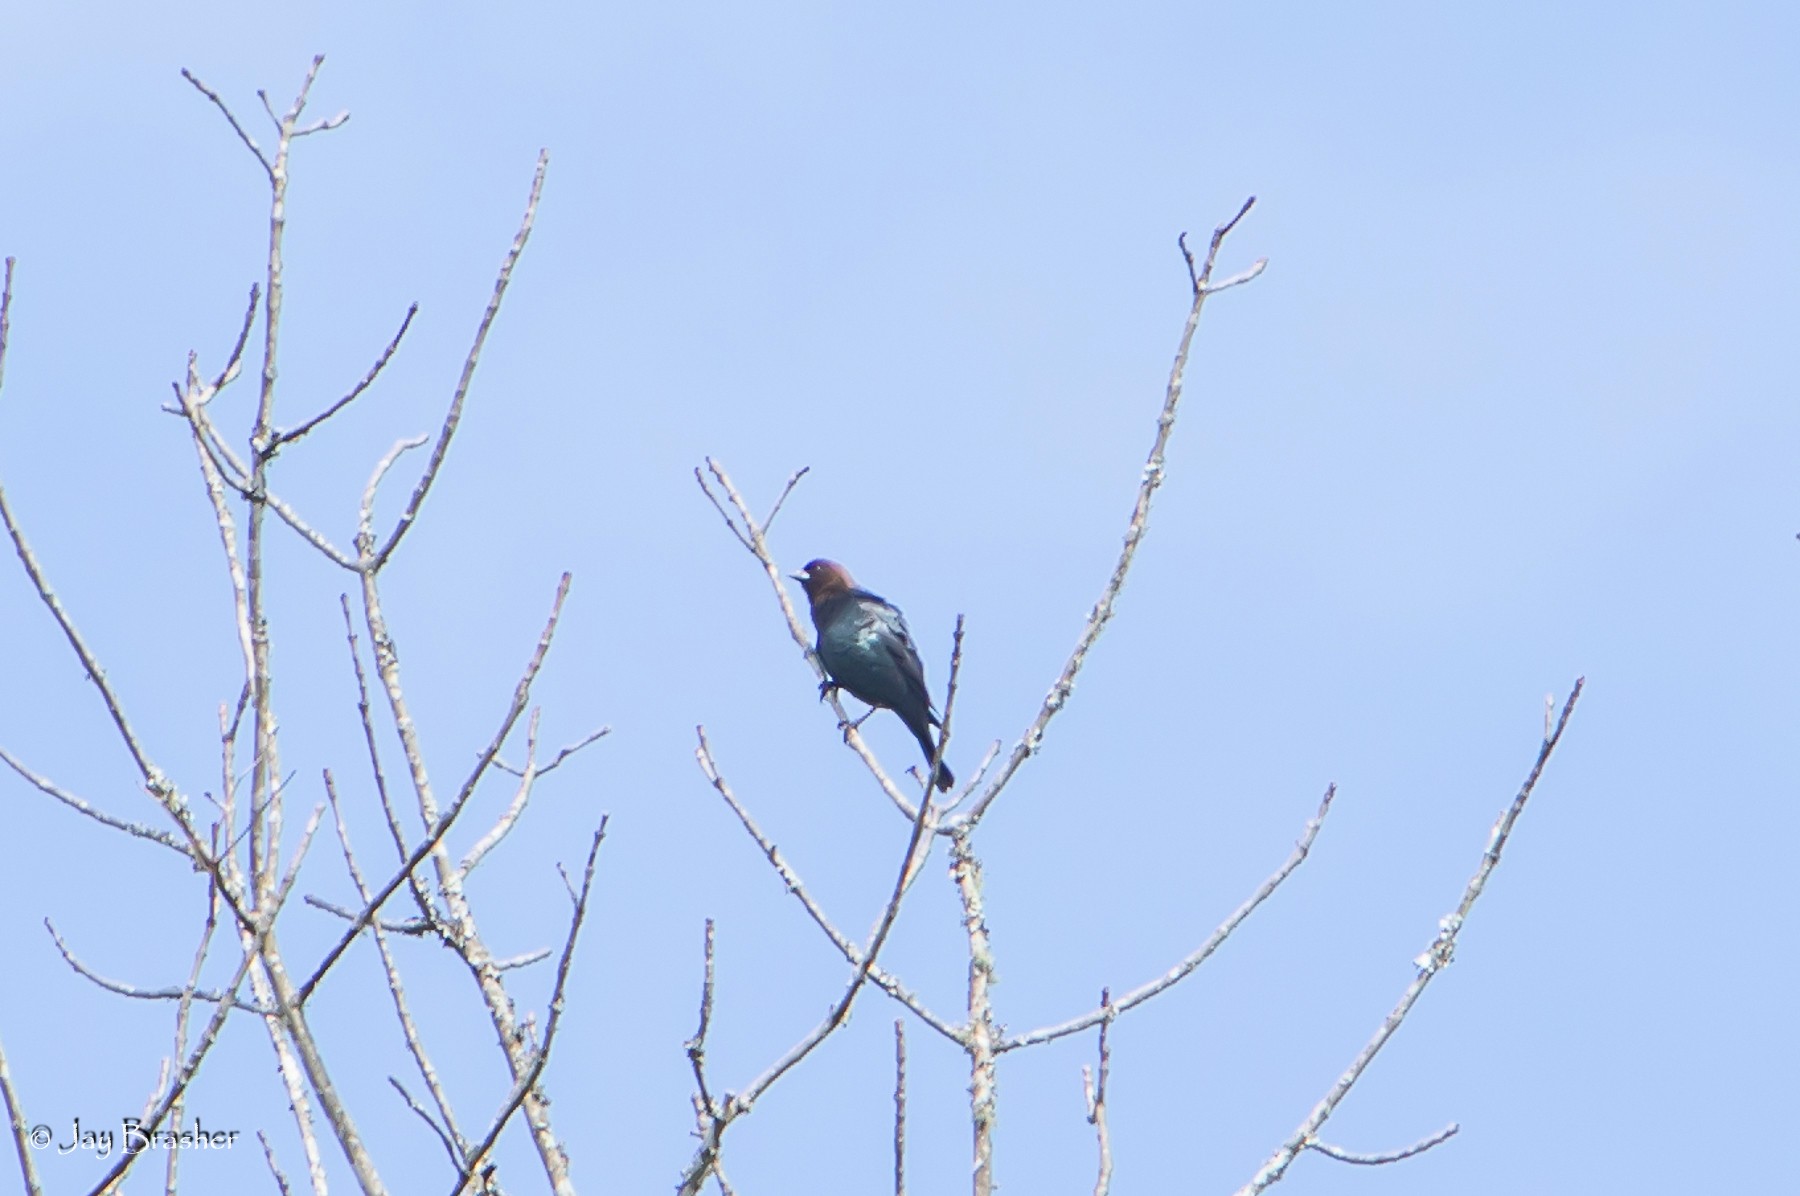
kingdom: Animalia
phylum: Chordata
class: Aves
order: Passeriformes
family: Icteridae
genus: Molothrus
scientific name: Molothrus ater
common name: Brown-headed cowbird
